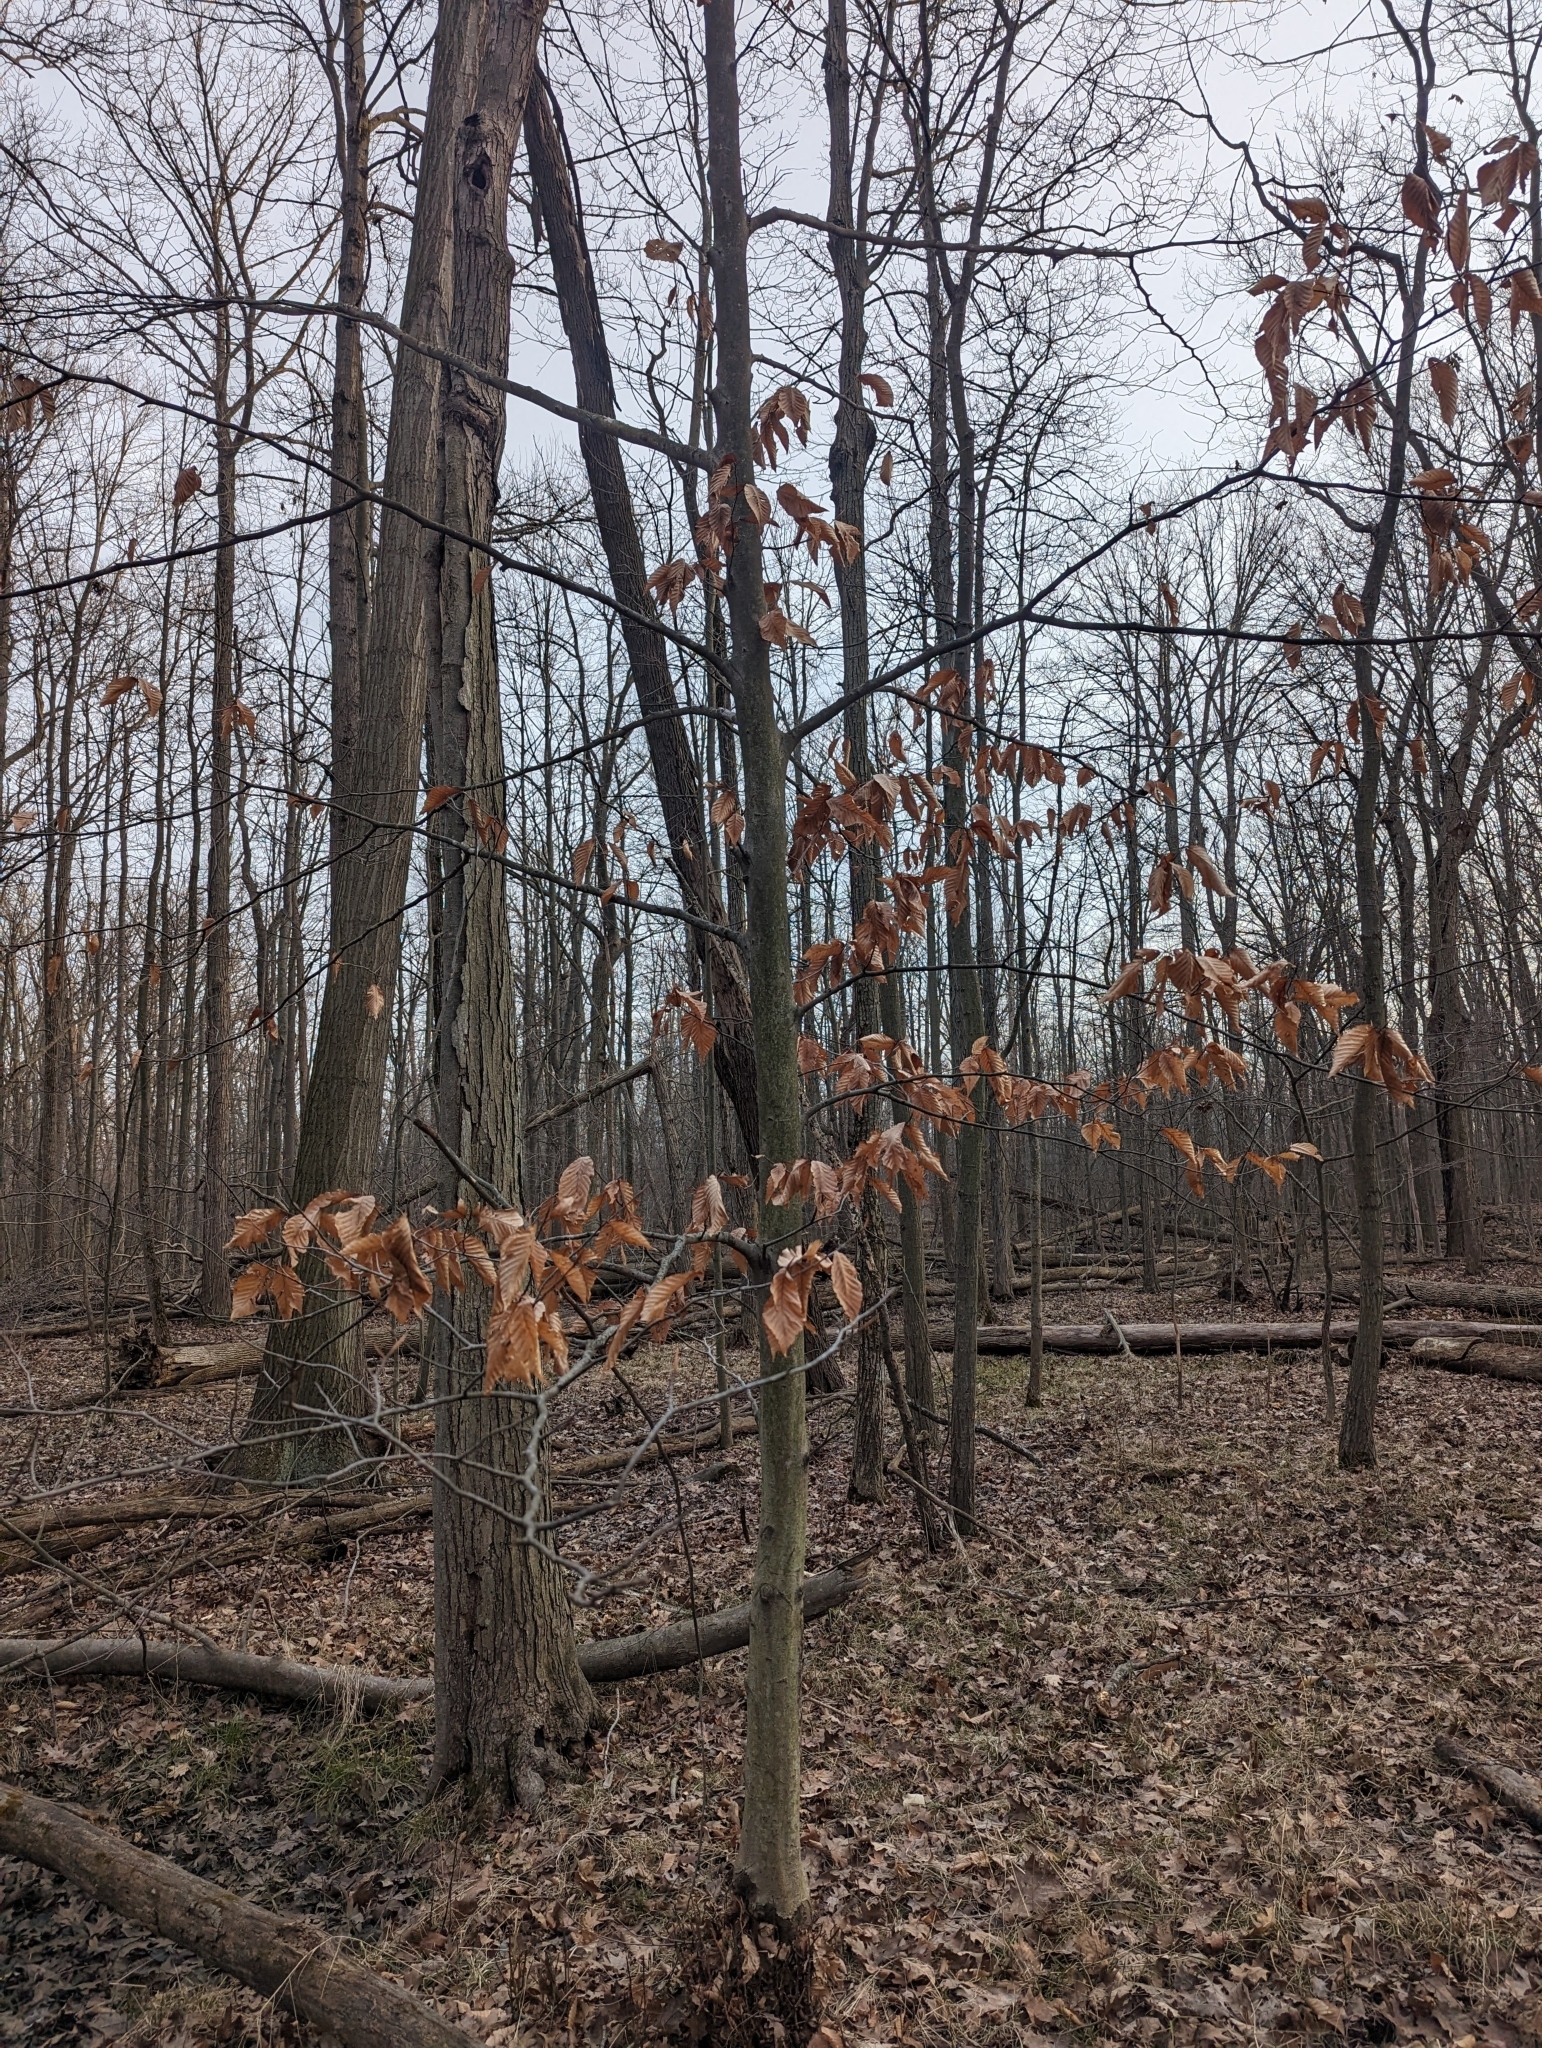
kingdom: Plantae
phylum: Tracheophyta
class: Magnoliopsida
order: Fagales
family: Fagaceae
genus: Fagus
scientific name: Fagus grandifolia
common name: American beech
